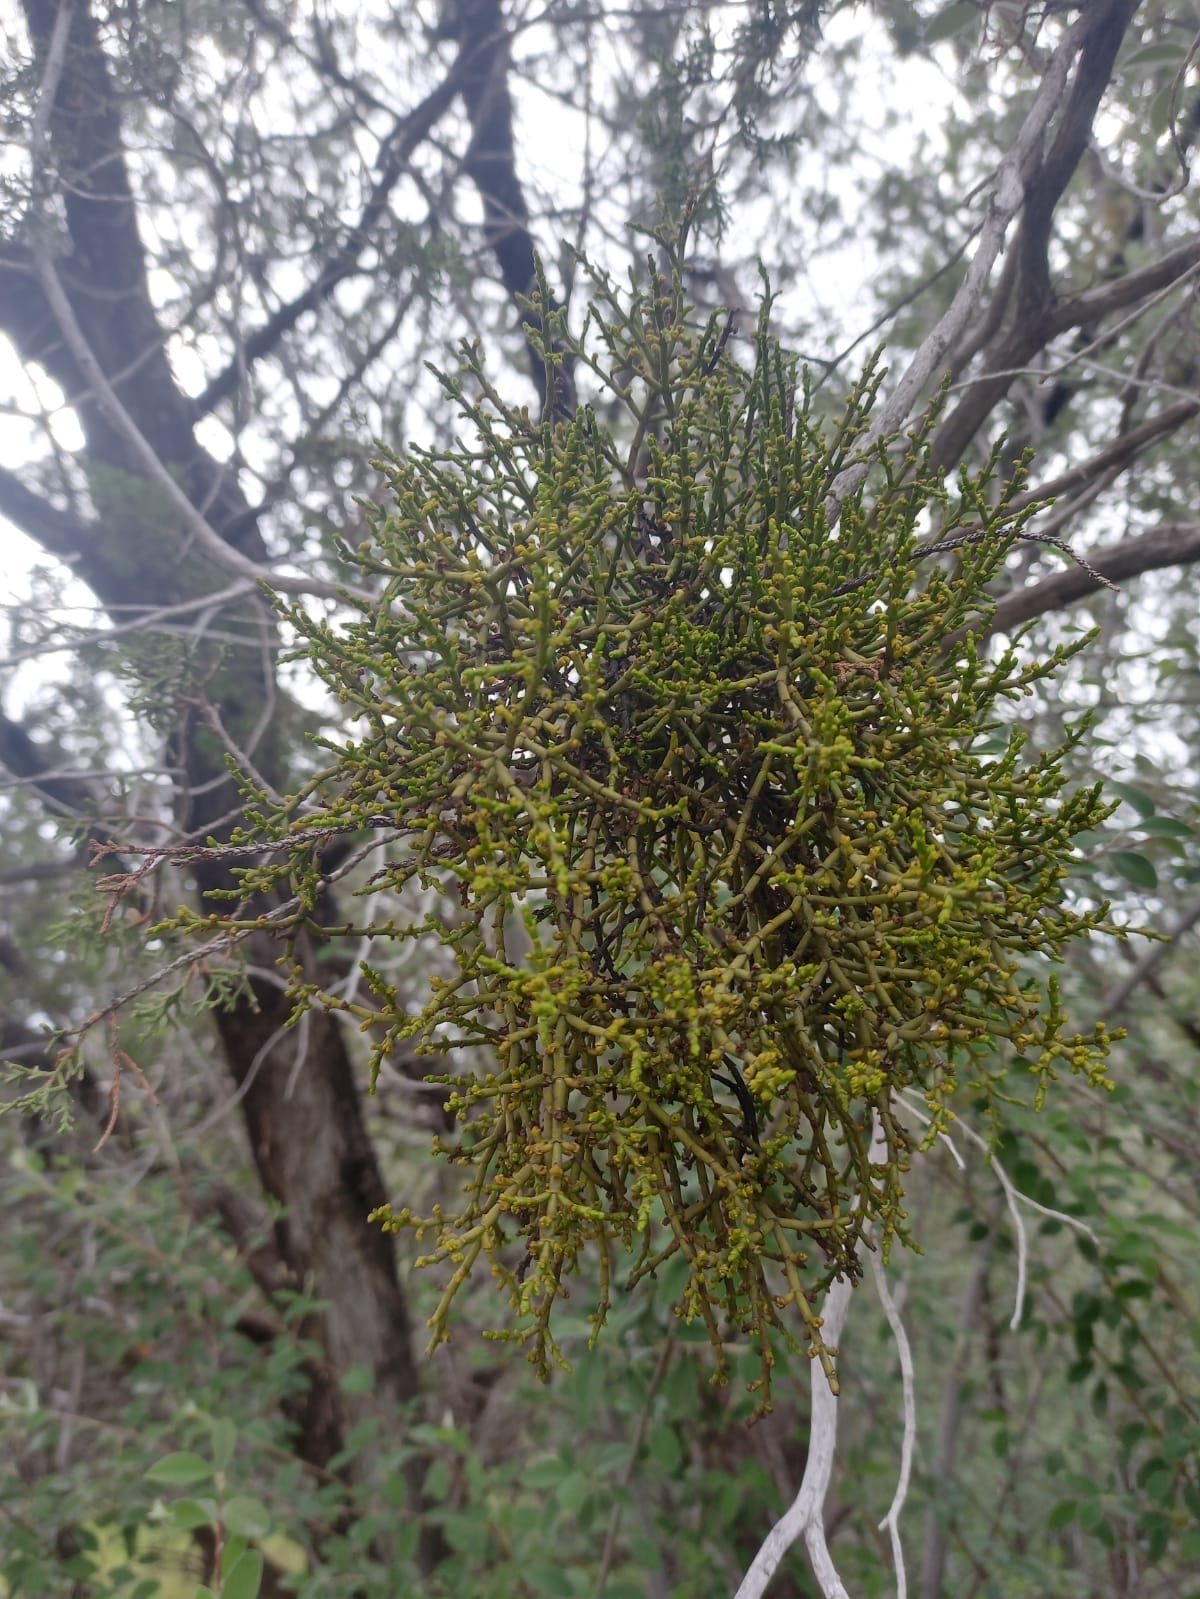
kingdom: Plantae
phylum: Tracheophyta
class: Magnoliopsida
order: Santalales
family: Viscaceae
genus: Phoradendron
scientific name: Phoradendron juniperinum
